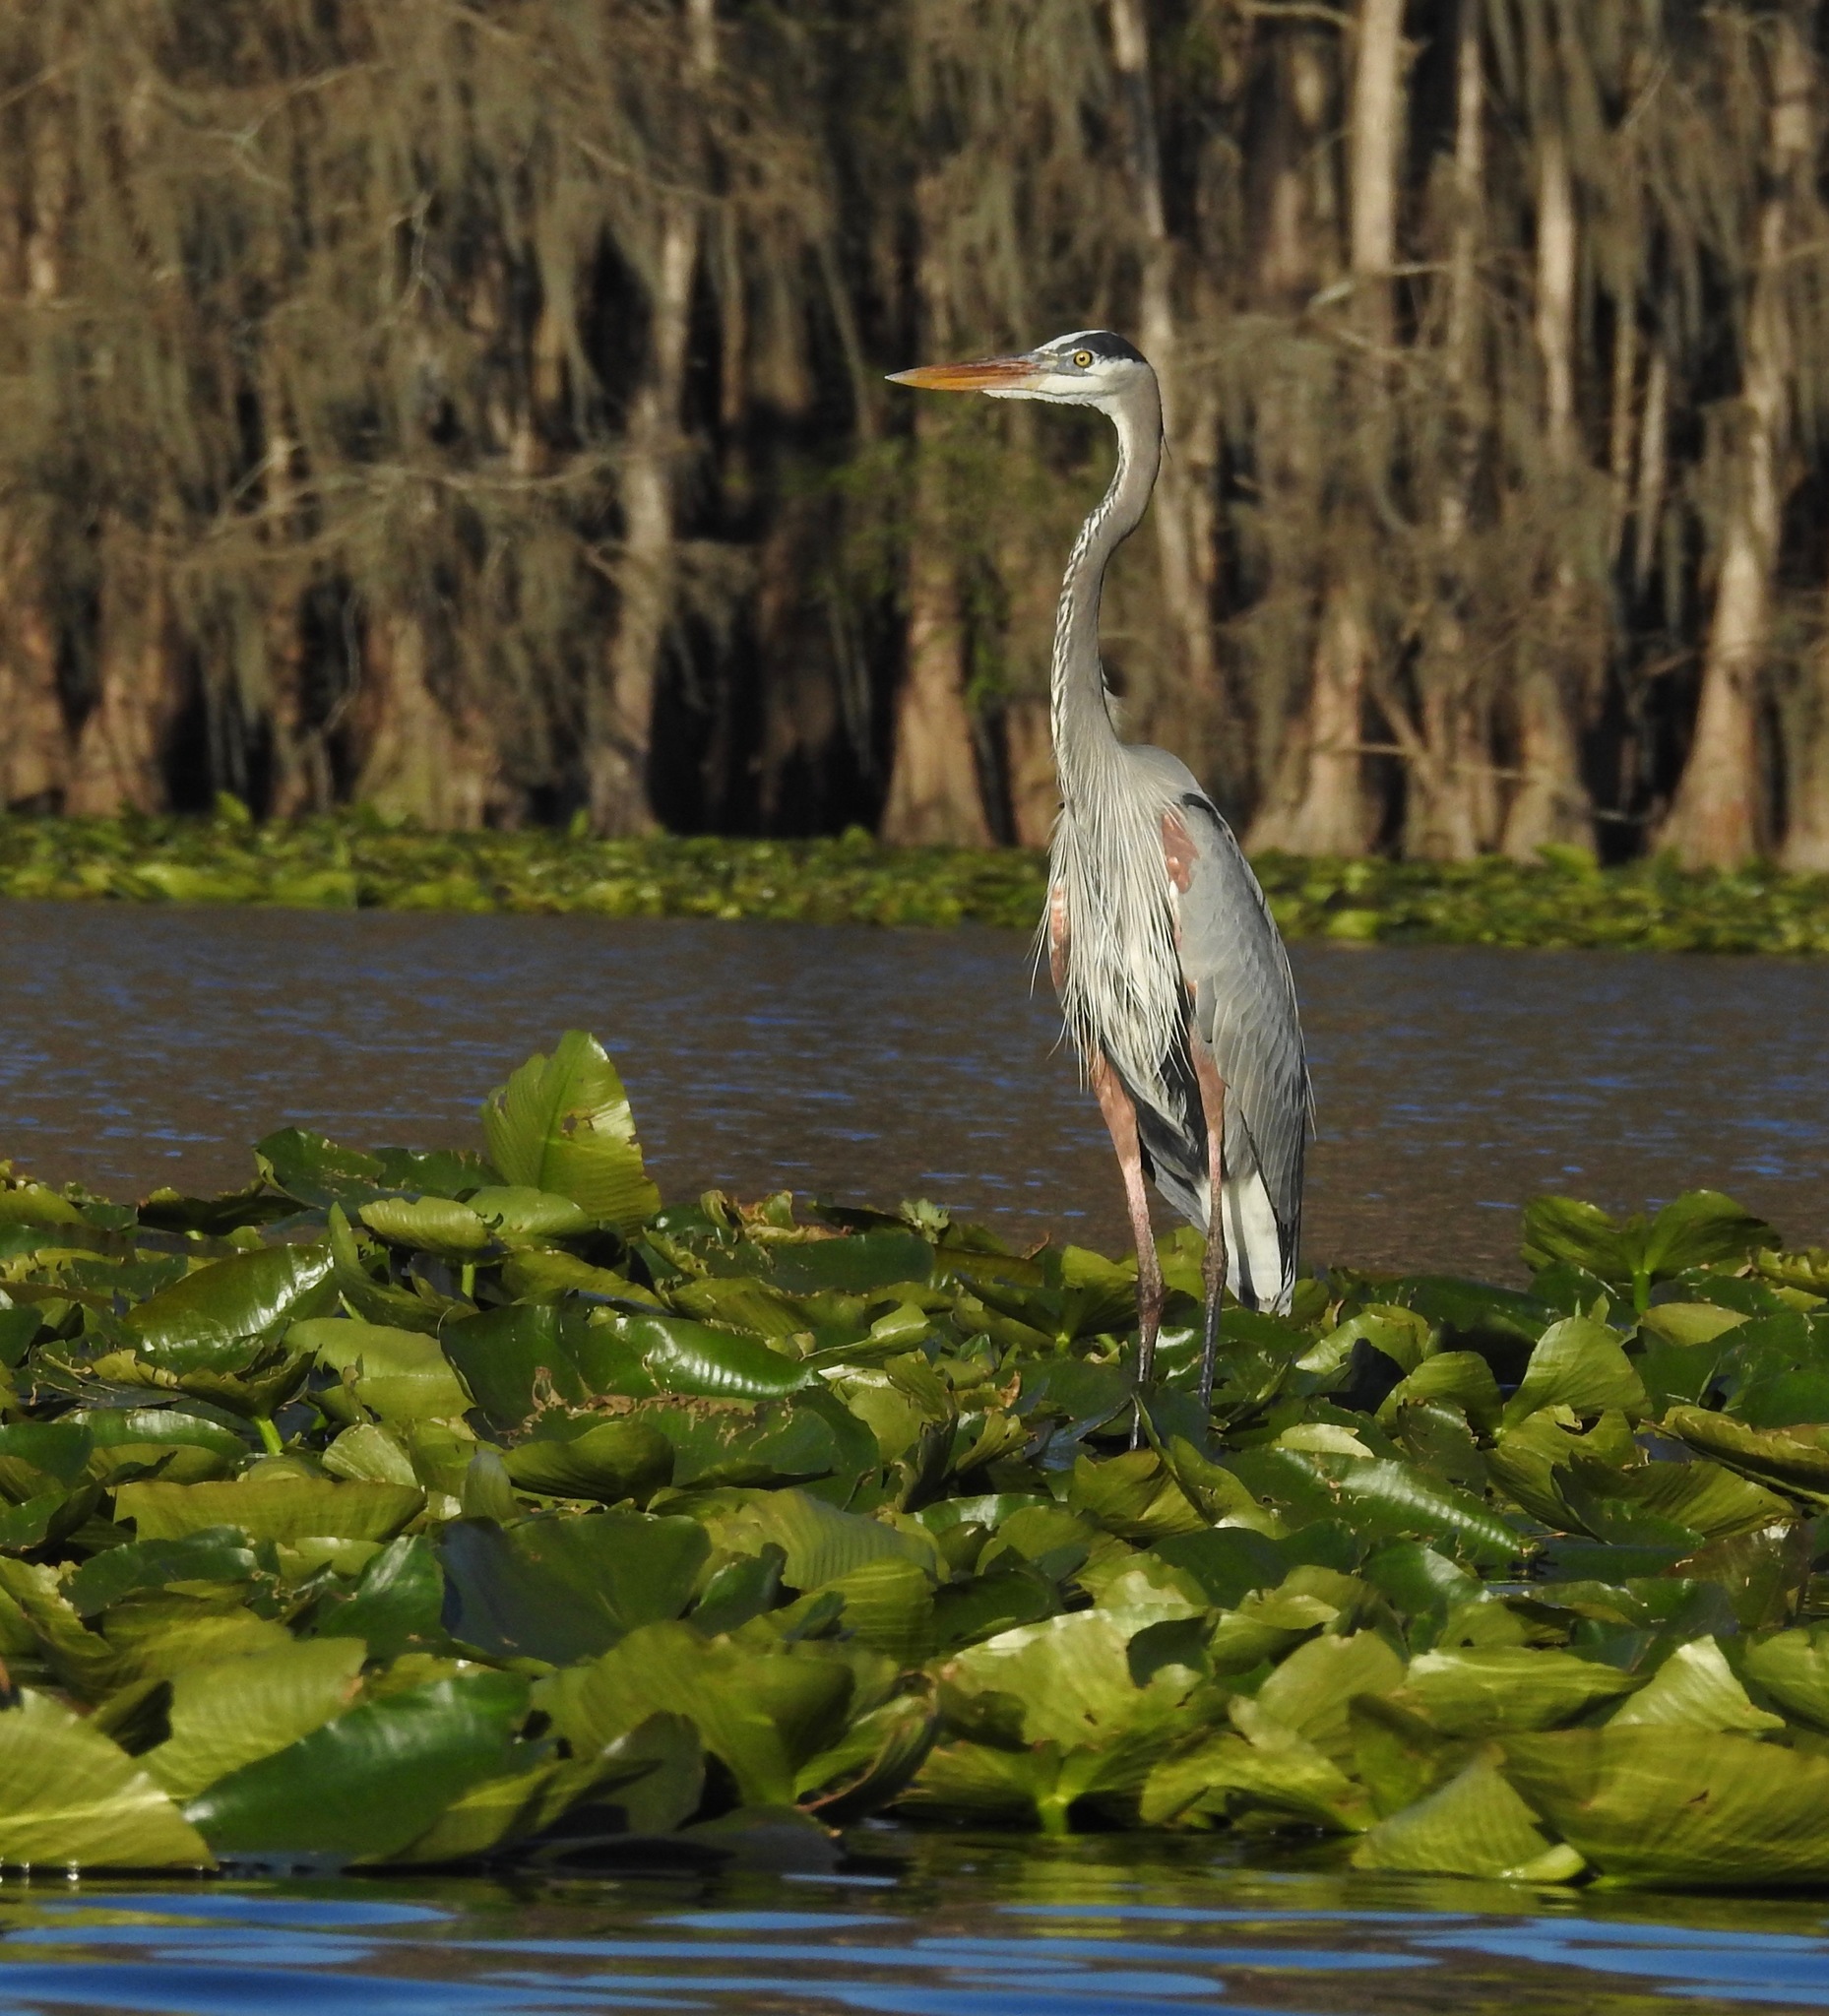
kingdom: Animalia
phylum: Chordata
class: Aves
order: Pelecaniformes
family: Ardeidae
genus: Ardea
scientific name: Ardea herodias
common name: Great blue heron
